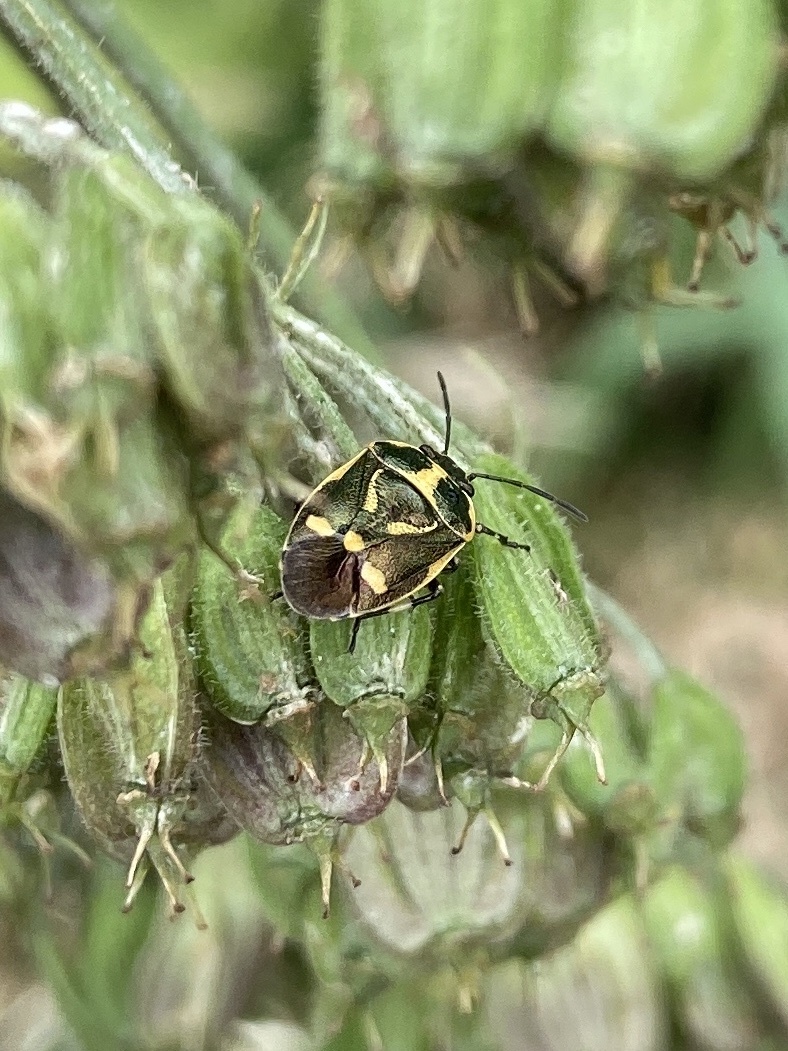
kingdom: Animalia
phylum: Arthropoda
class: Insecta
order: Hemiptera
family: Pentatomidae
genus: Eurydema
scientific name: Eurydema oleracea
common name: Cabbage bug
